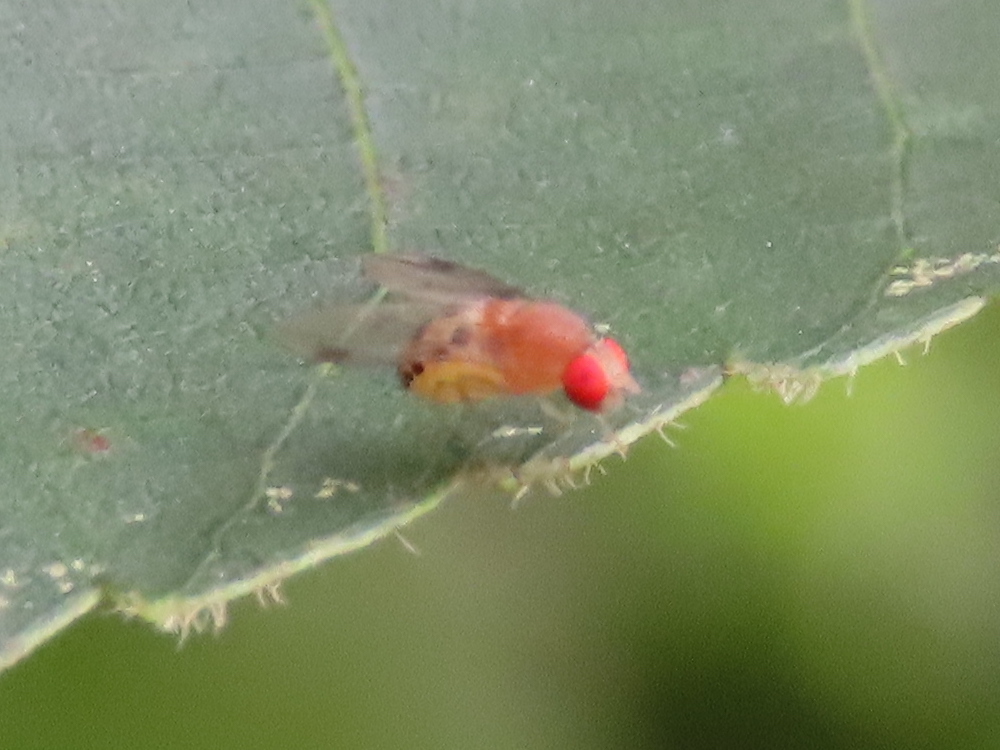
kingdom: Animalia
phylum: Arthropoda
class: Insecta
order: Diptera
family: Drosophilidae
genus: Leucophenga
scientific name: Leucophenga varia
